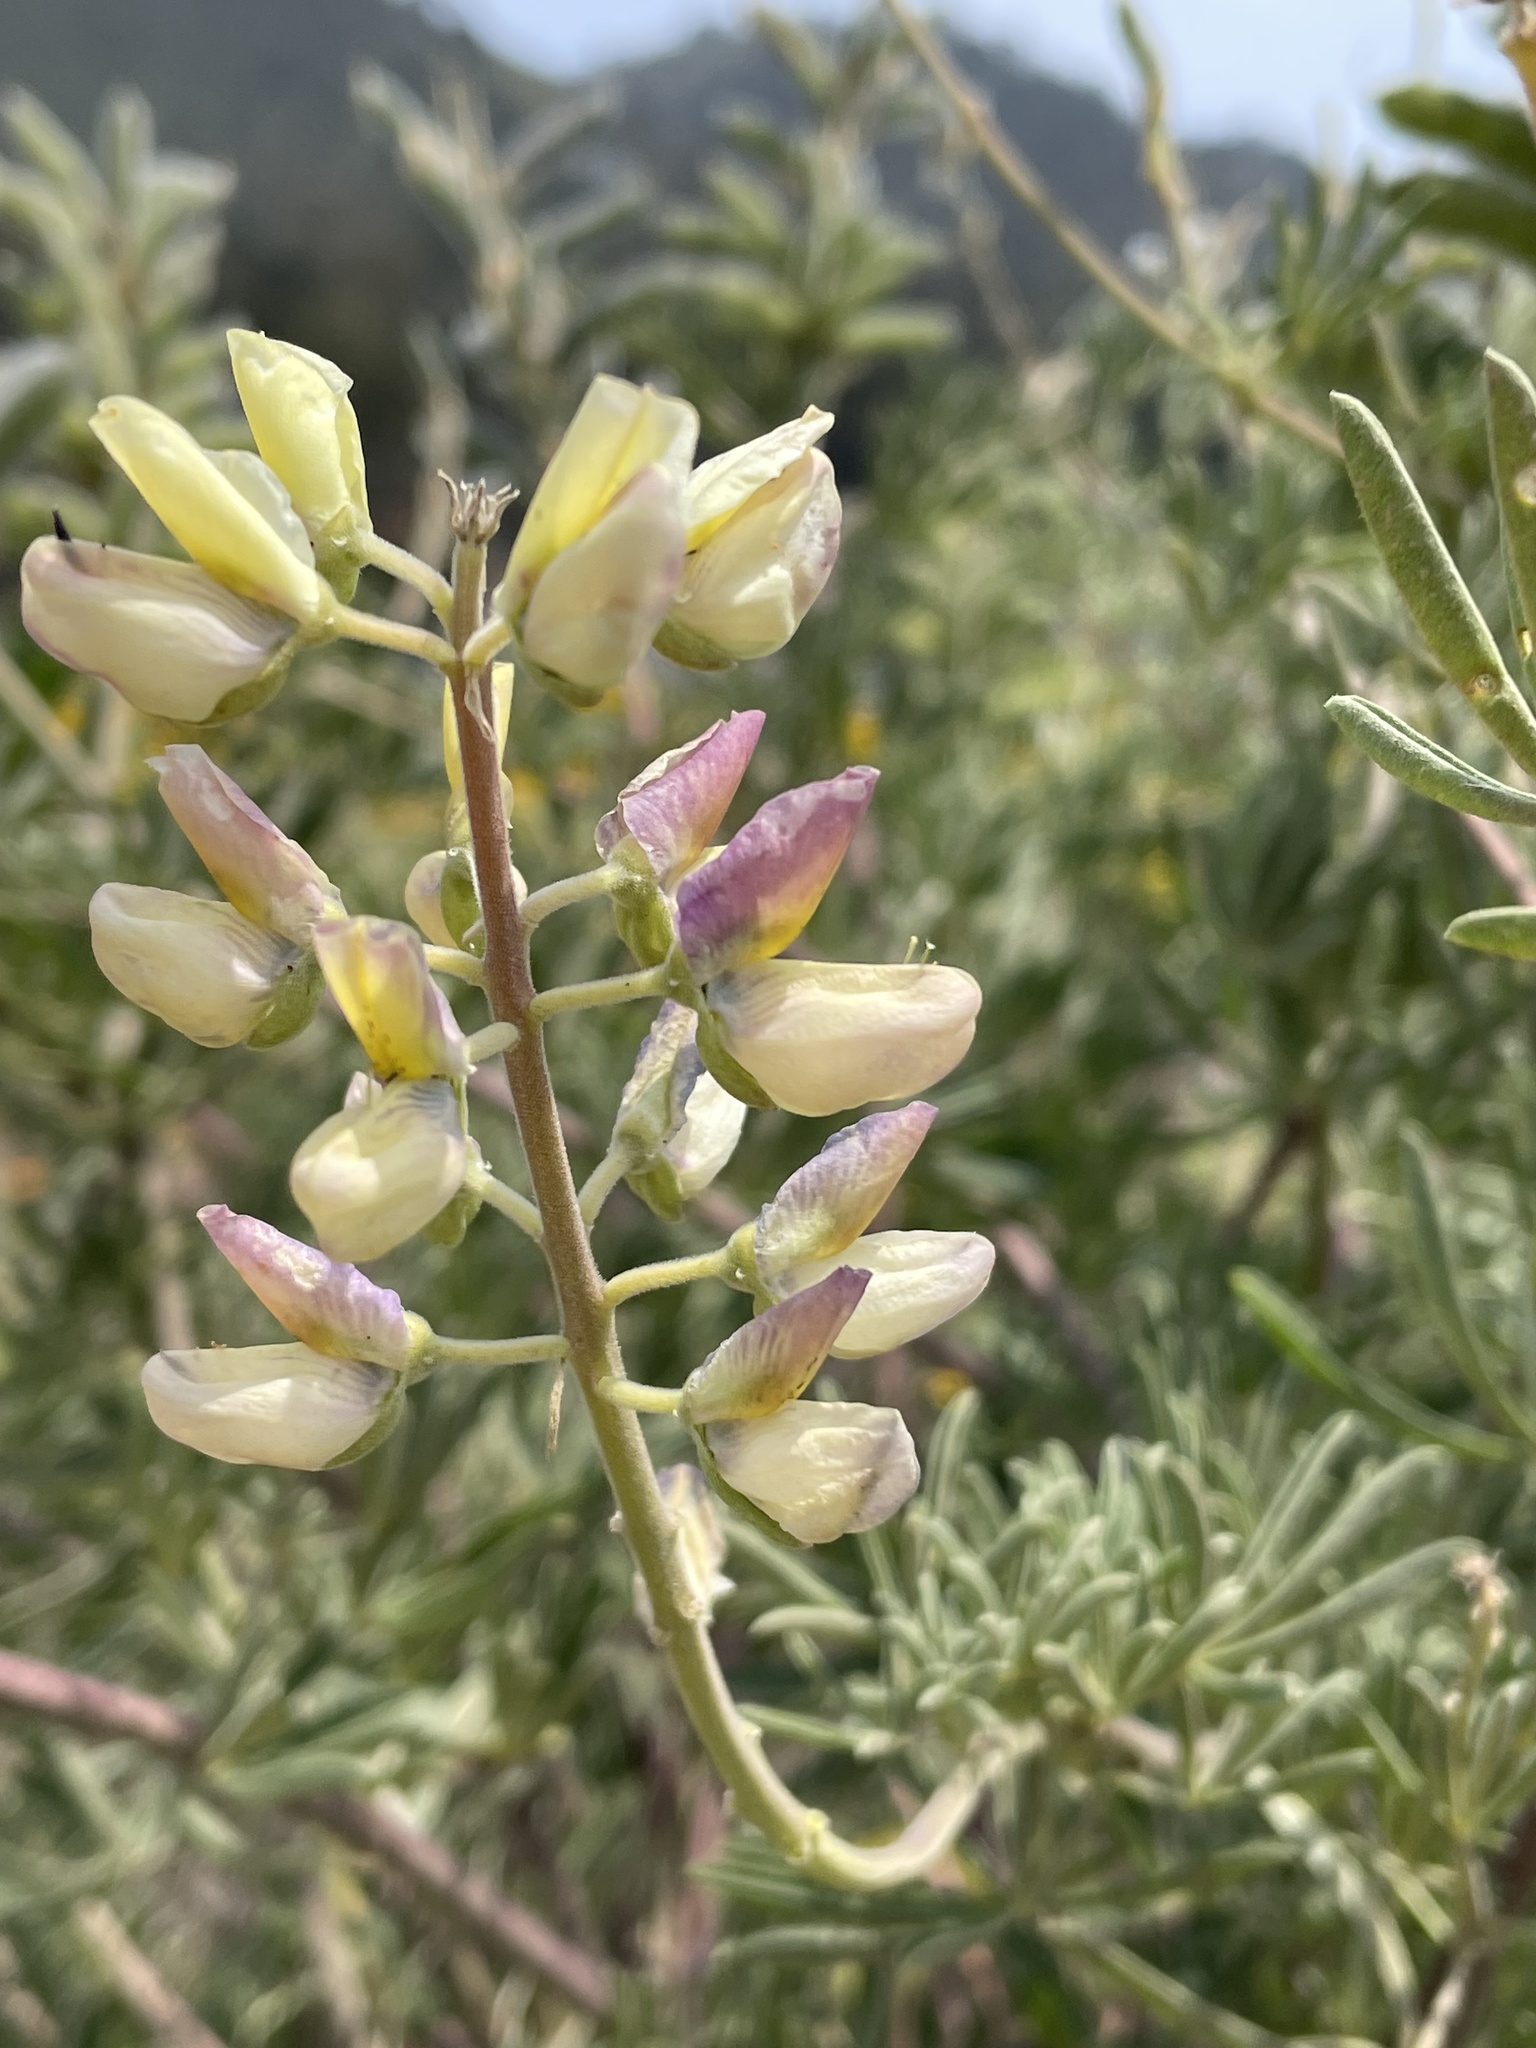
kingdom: Plantae
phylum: Tracheophyta
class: Magnoliopsida
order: Fabales
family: Fabaceae
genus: Lupinus
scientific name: Lupinus arboreus
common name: Yellow bush lupine
